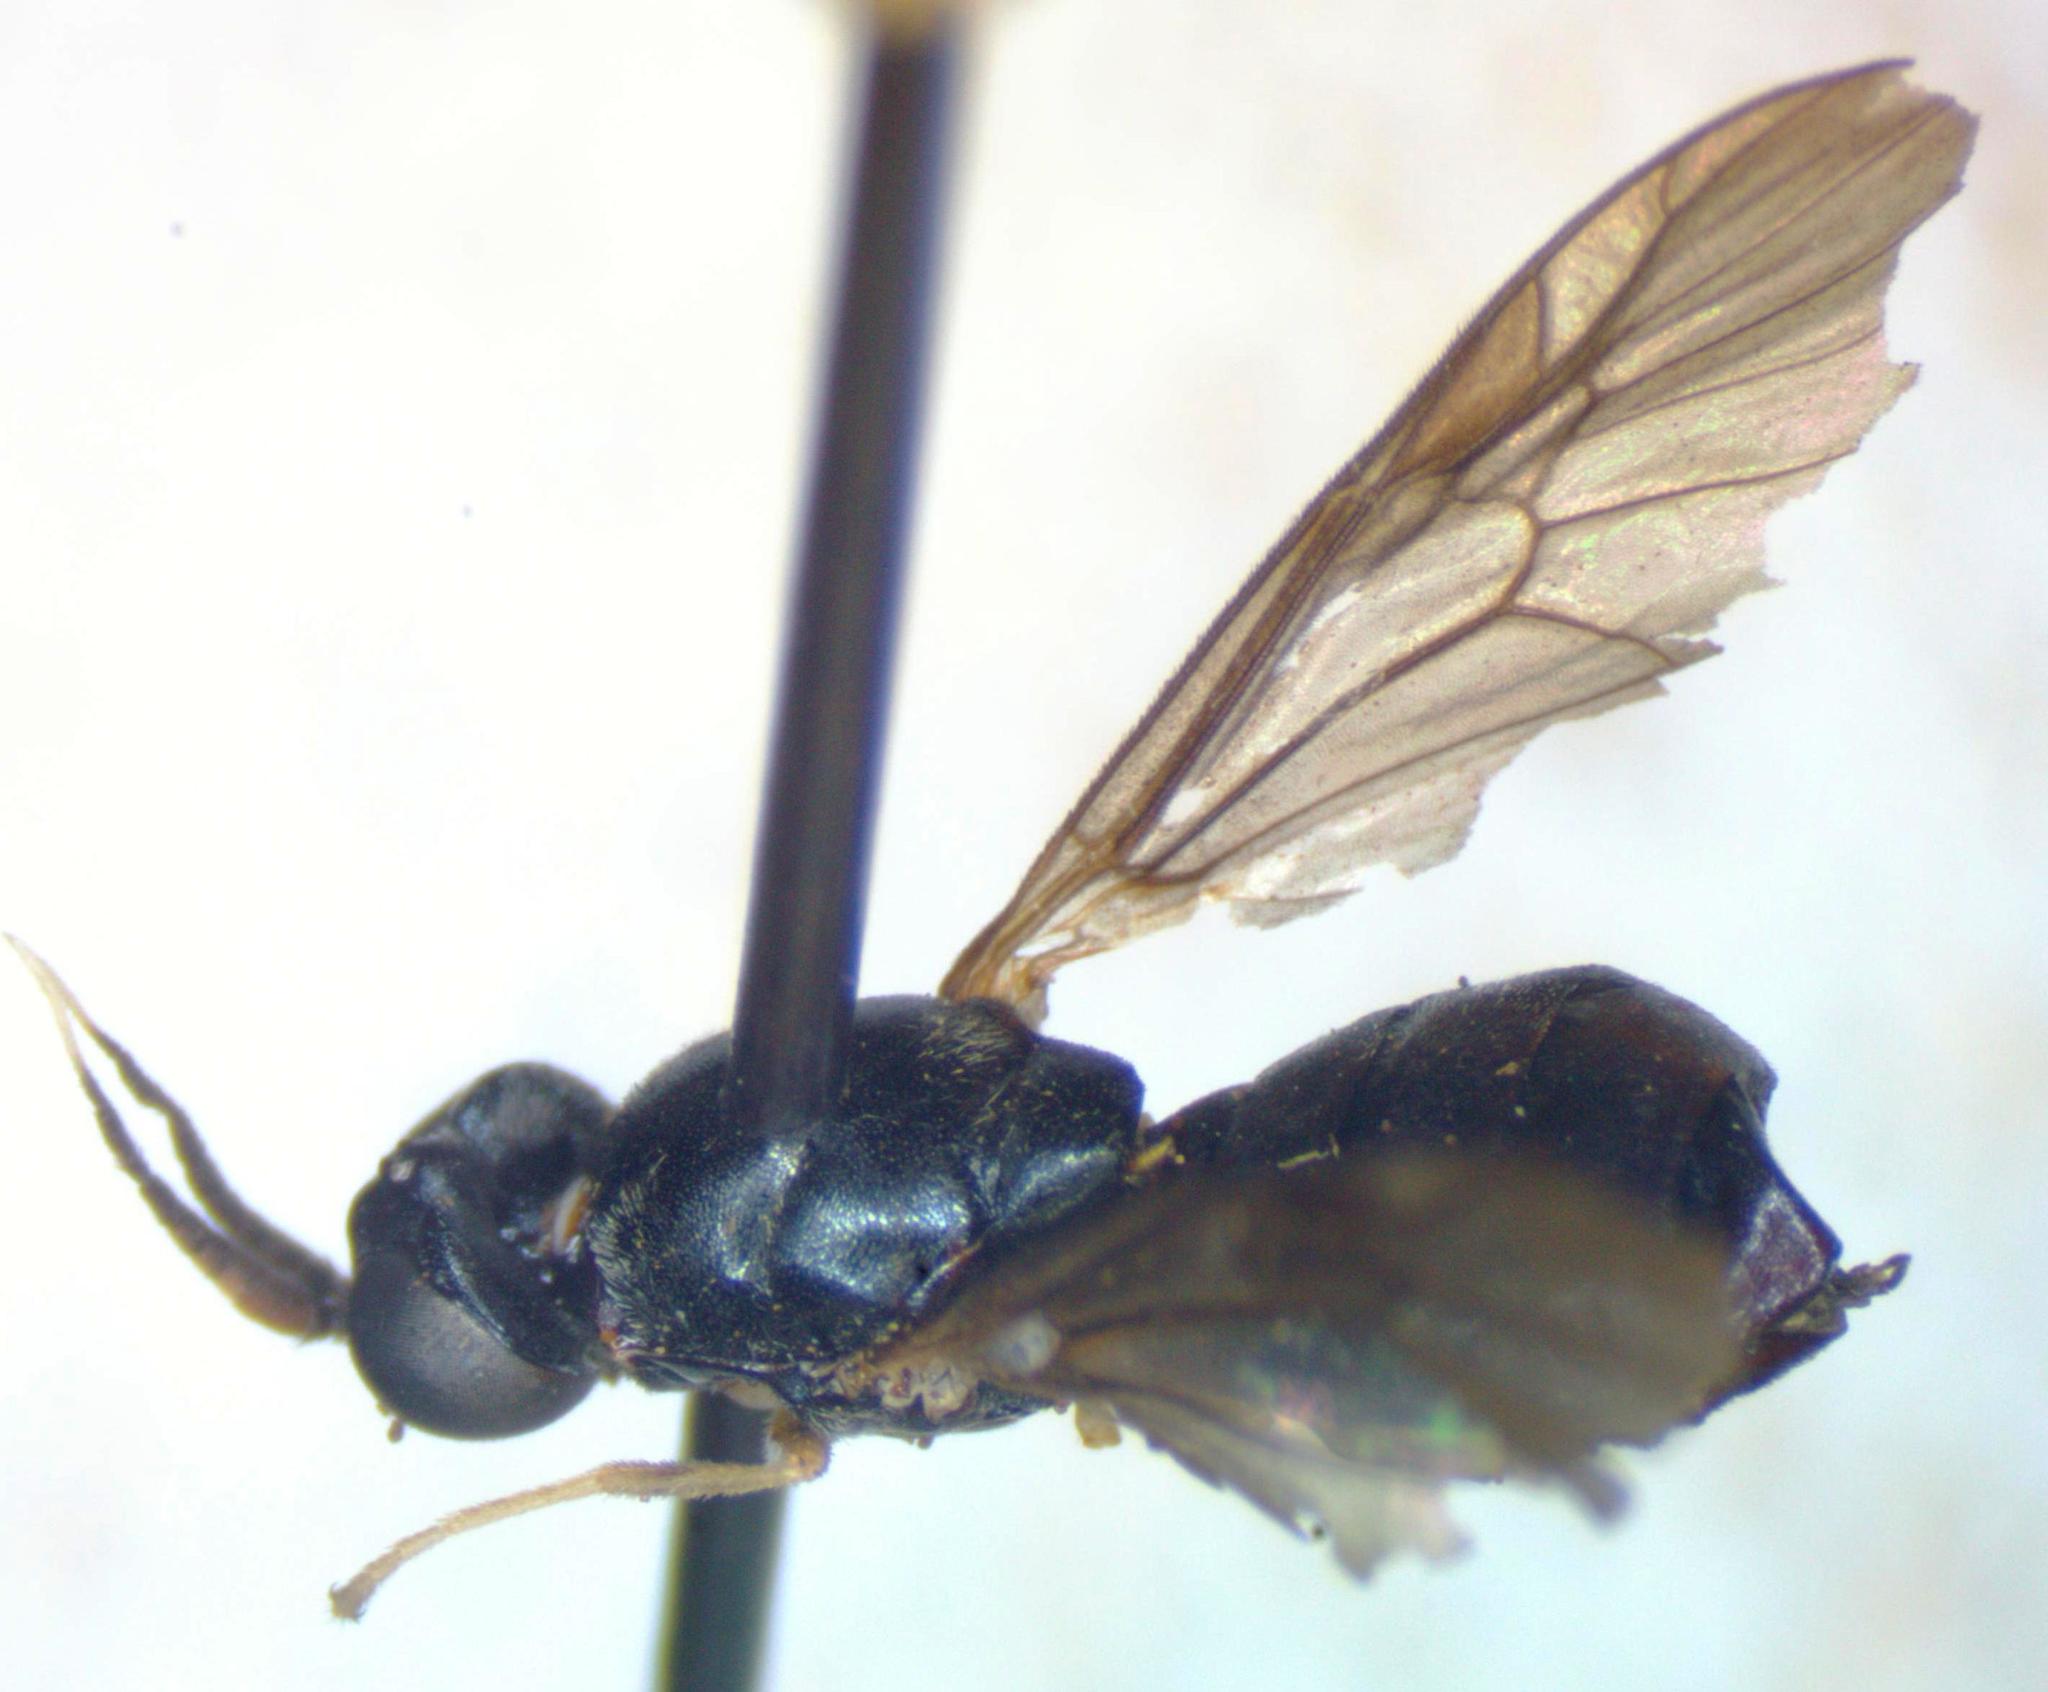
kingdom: Animalia
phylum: Arthropoda
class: Insecta
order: Diptera
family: Stratiomyidae
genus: Leucoptilum
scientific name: Leucoptilum plaumanni
